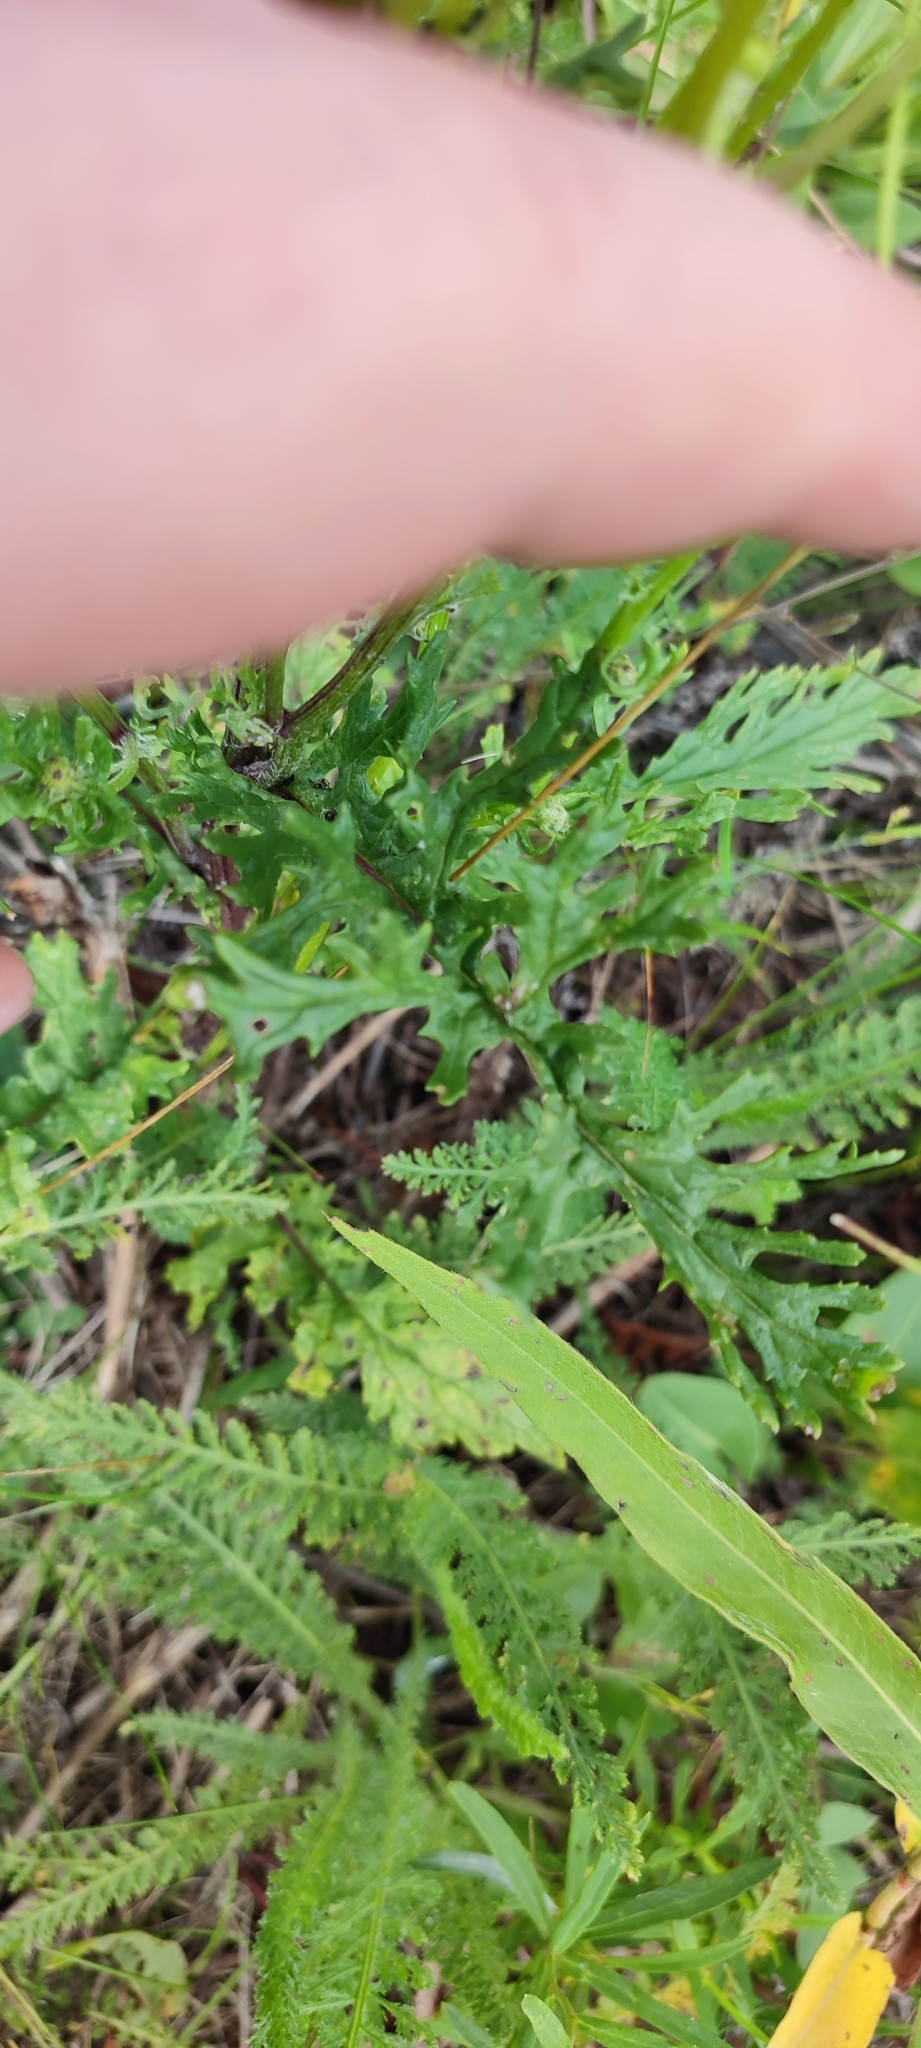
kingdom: Plantae
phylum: Tracheophyta
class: Magnoliopsida
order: Asterales
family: Asteraceae
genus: Jacobaea
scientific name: Jacobaea vulgaris
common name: Stinking willie
